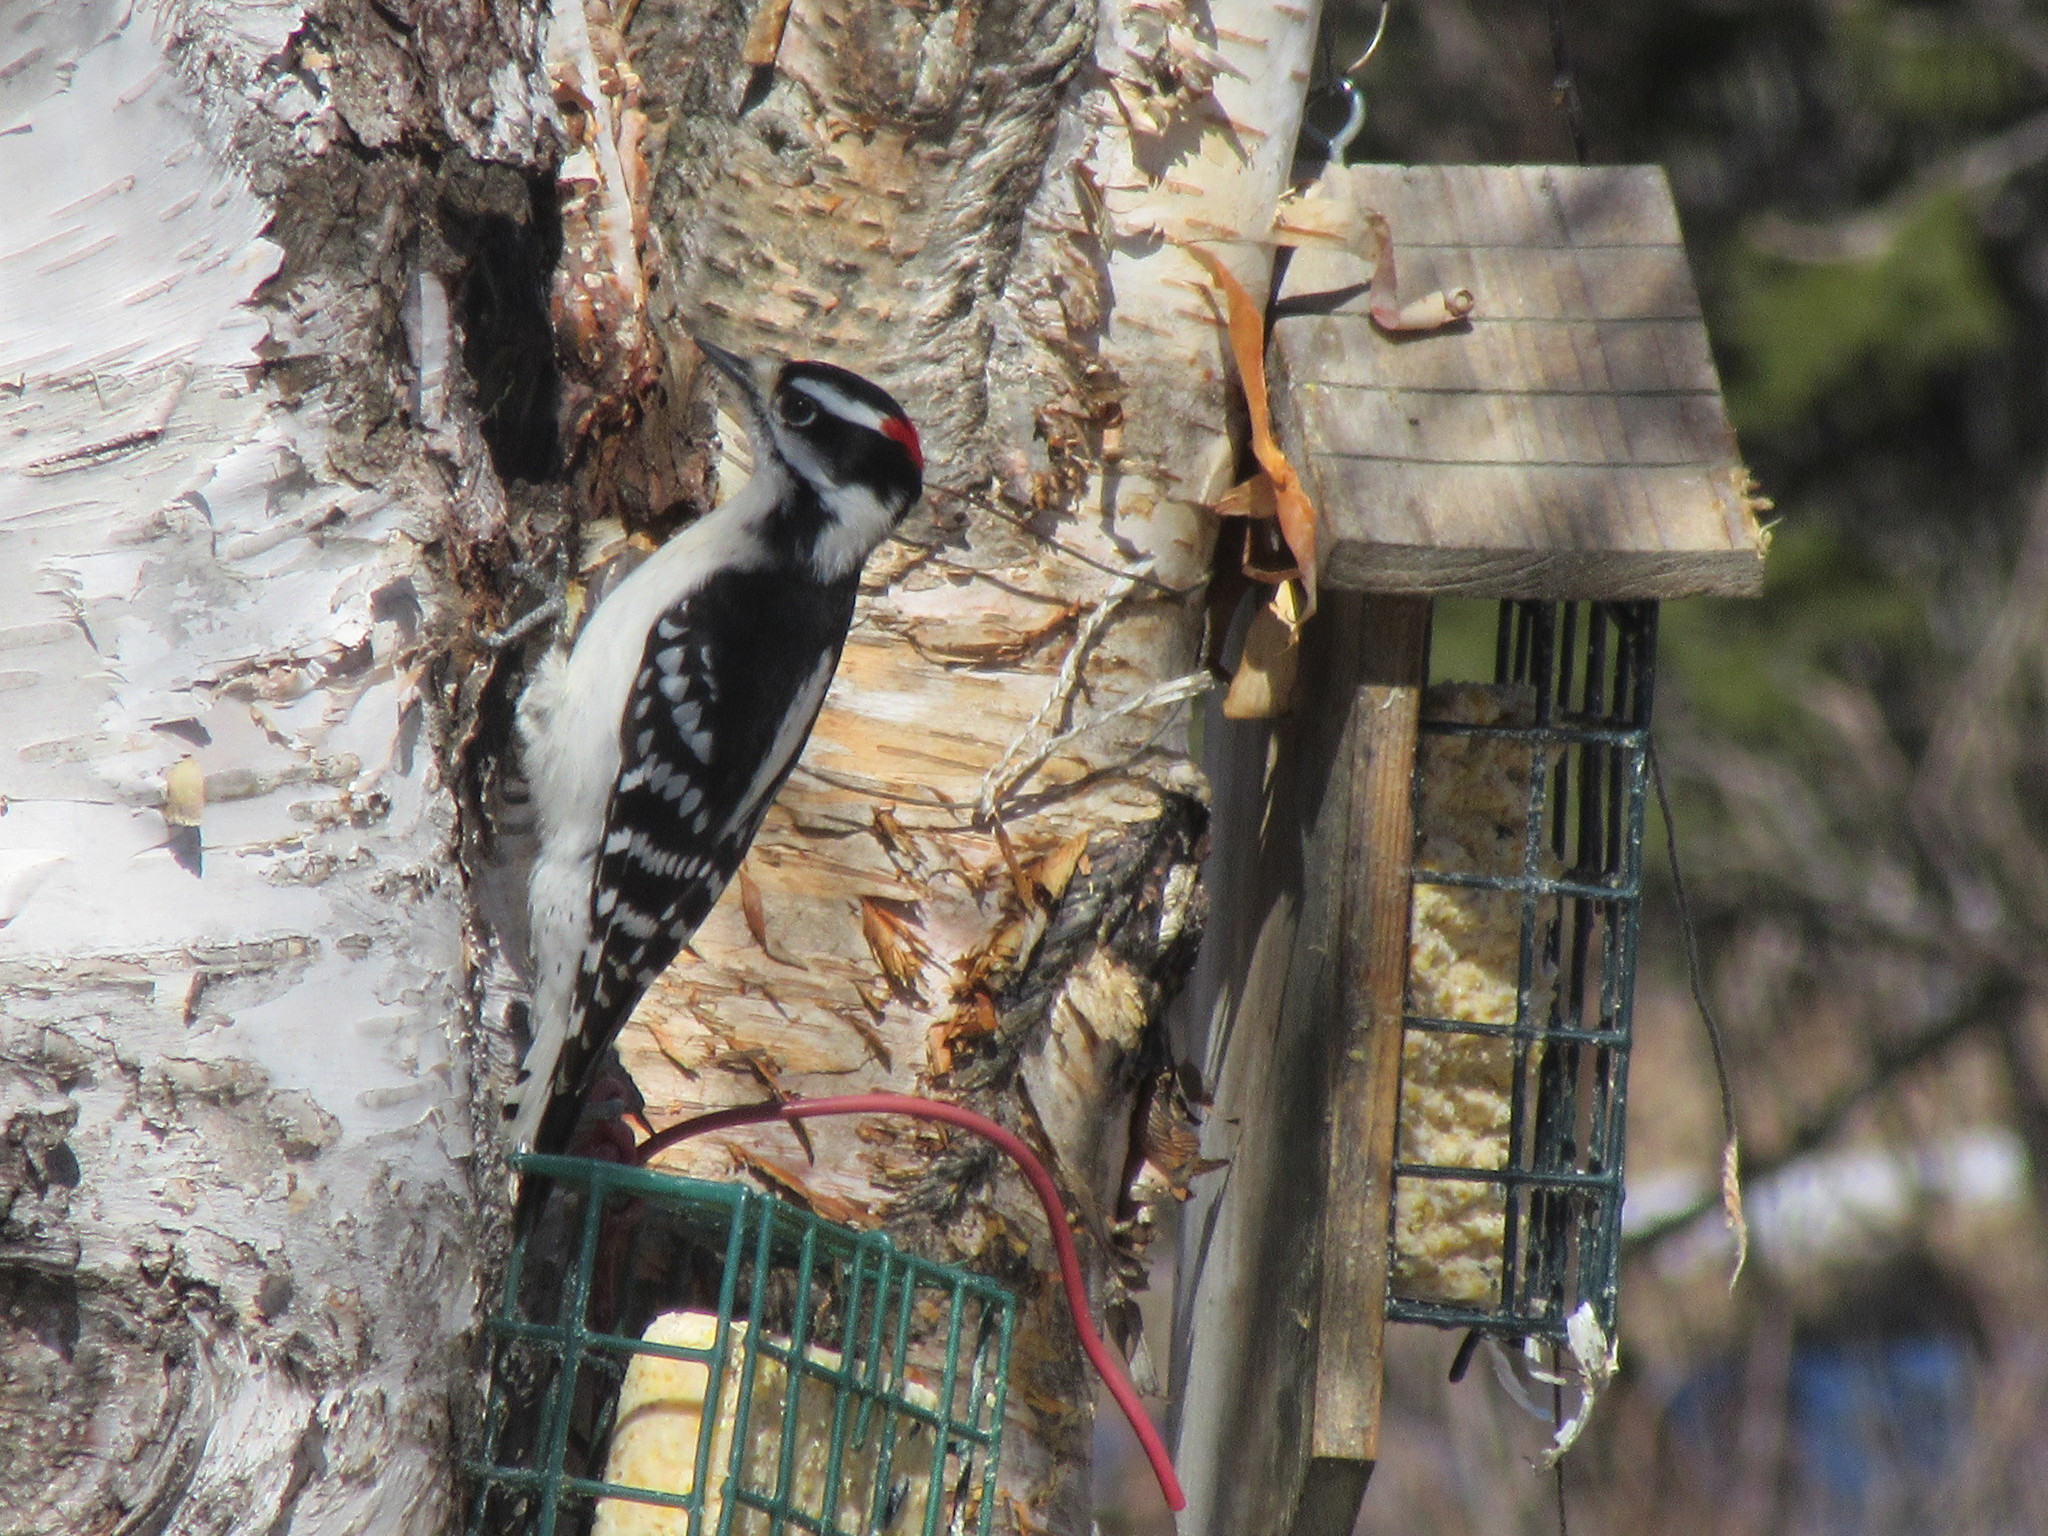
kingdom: Animalia
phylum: Chordata
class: Aves
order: Piciformes
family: Picidae
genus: Dryobates
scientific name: Dryobates pubescens
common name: Downy woodpecker
